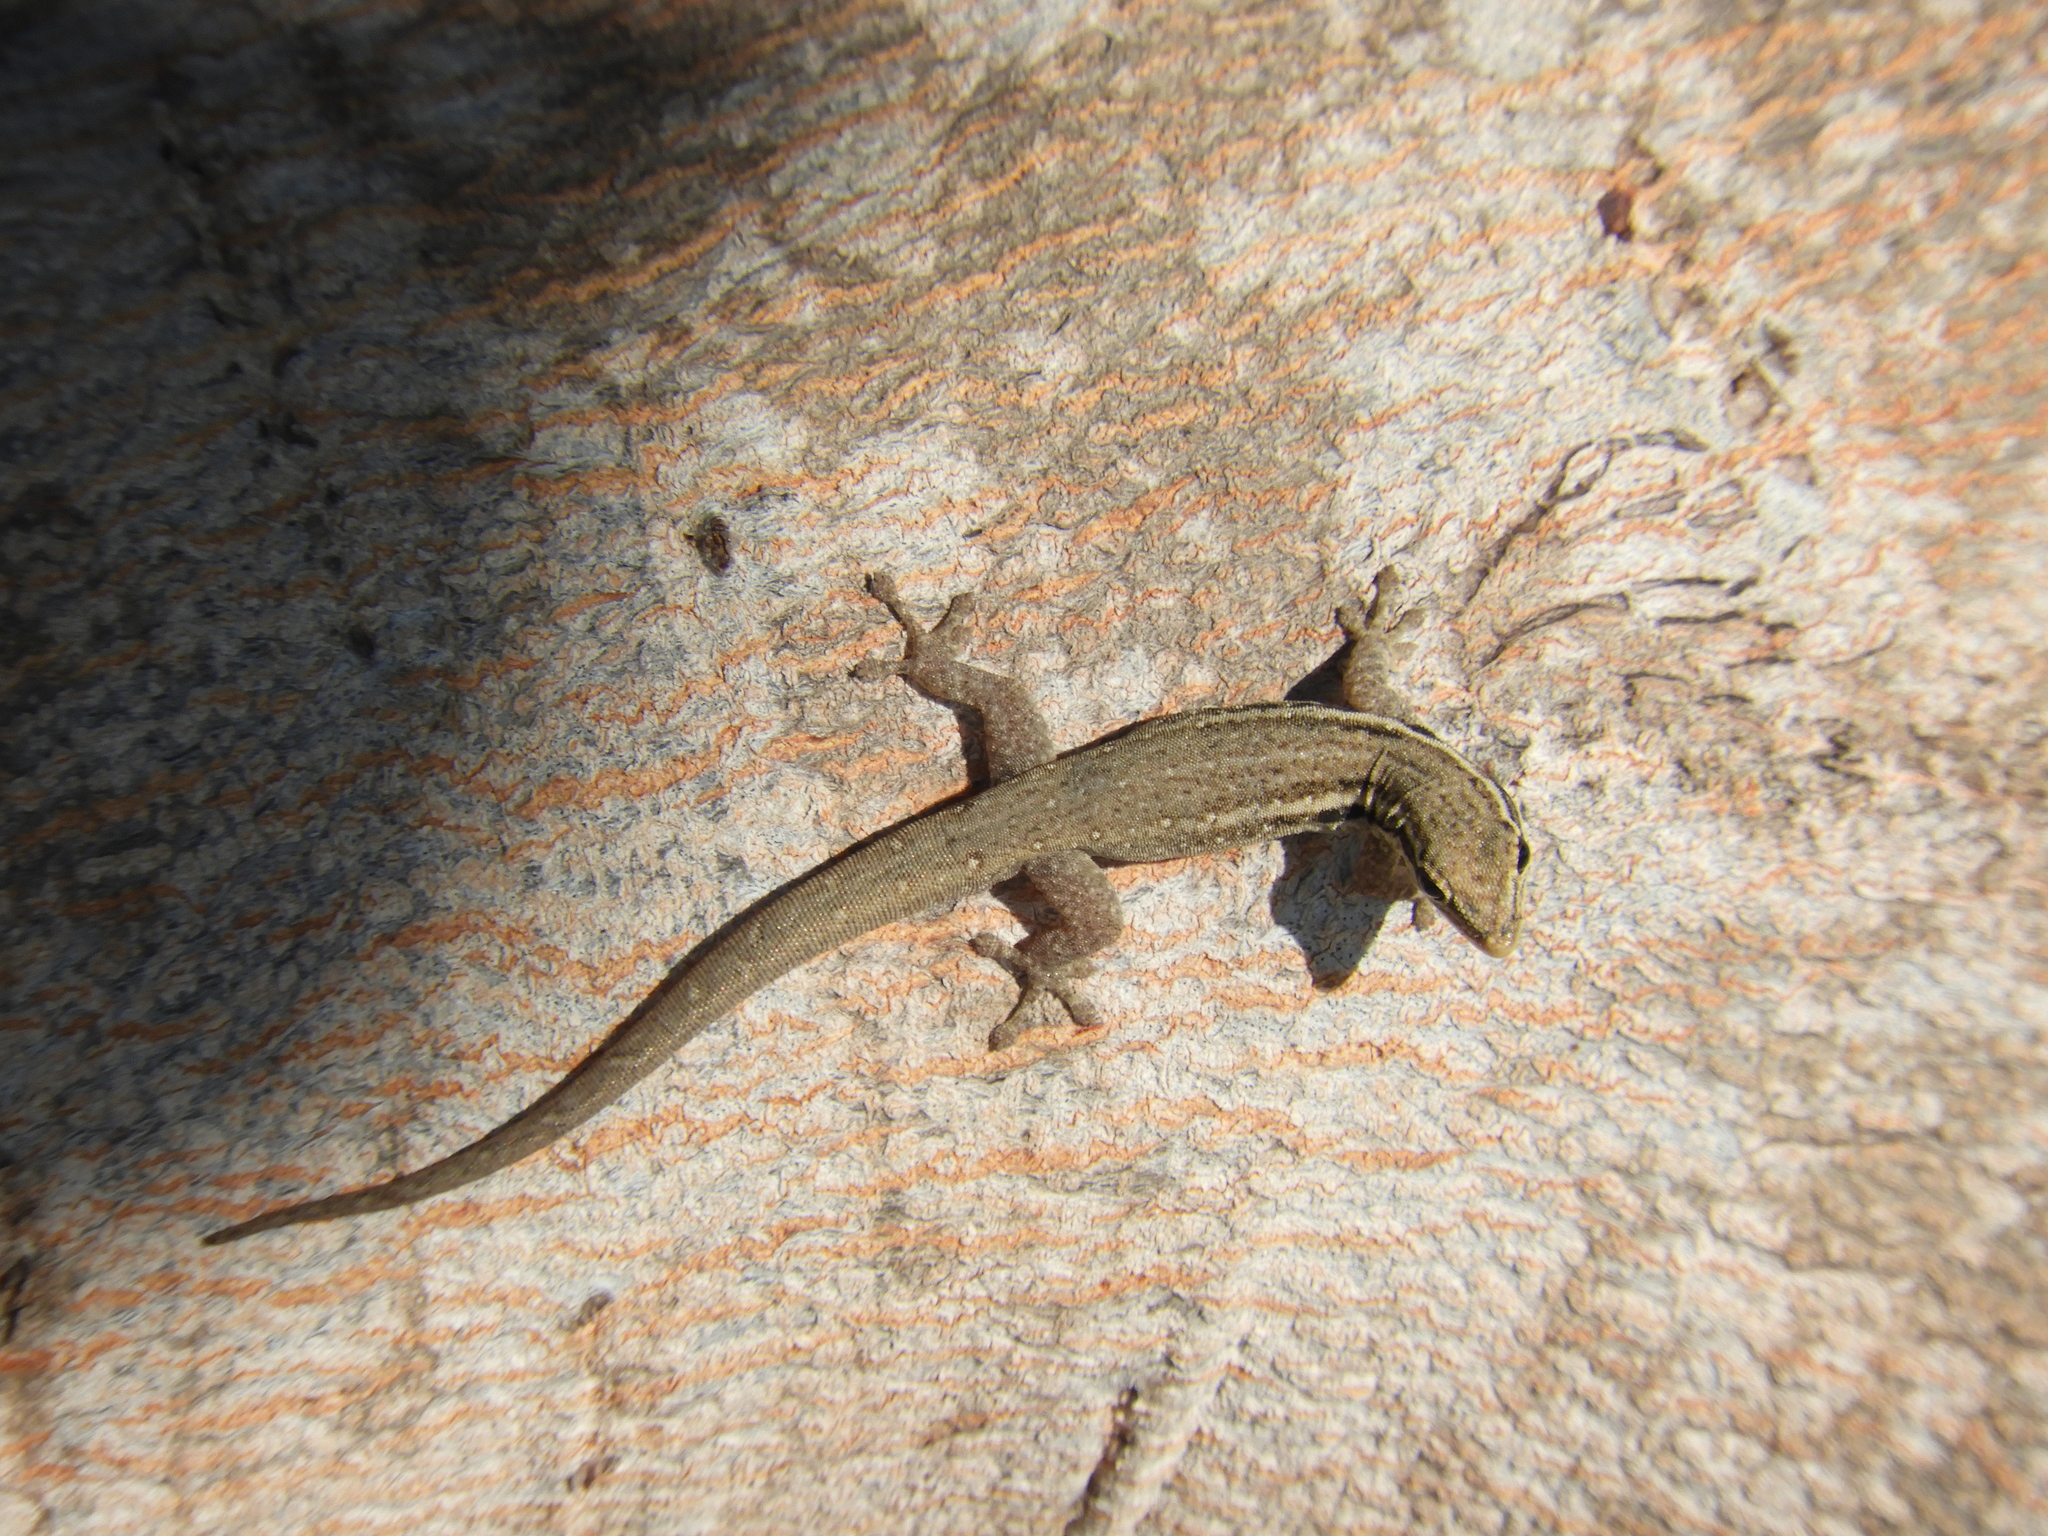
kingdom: Animalia
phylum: Chordata
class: Squamata
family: Gekkonidae
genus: Lygodactylus
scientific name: Lygodactylus capensis
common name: Cape dwarf gecko
